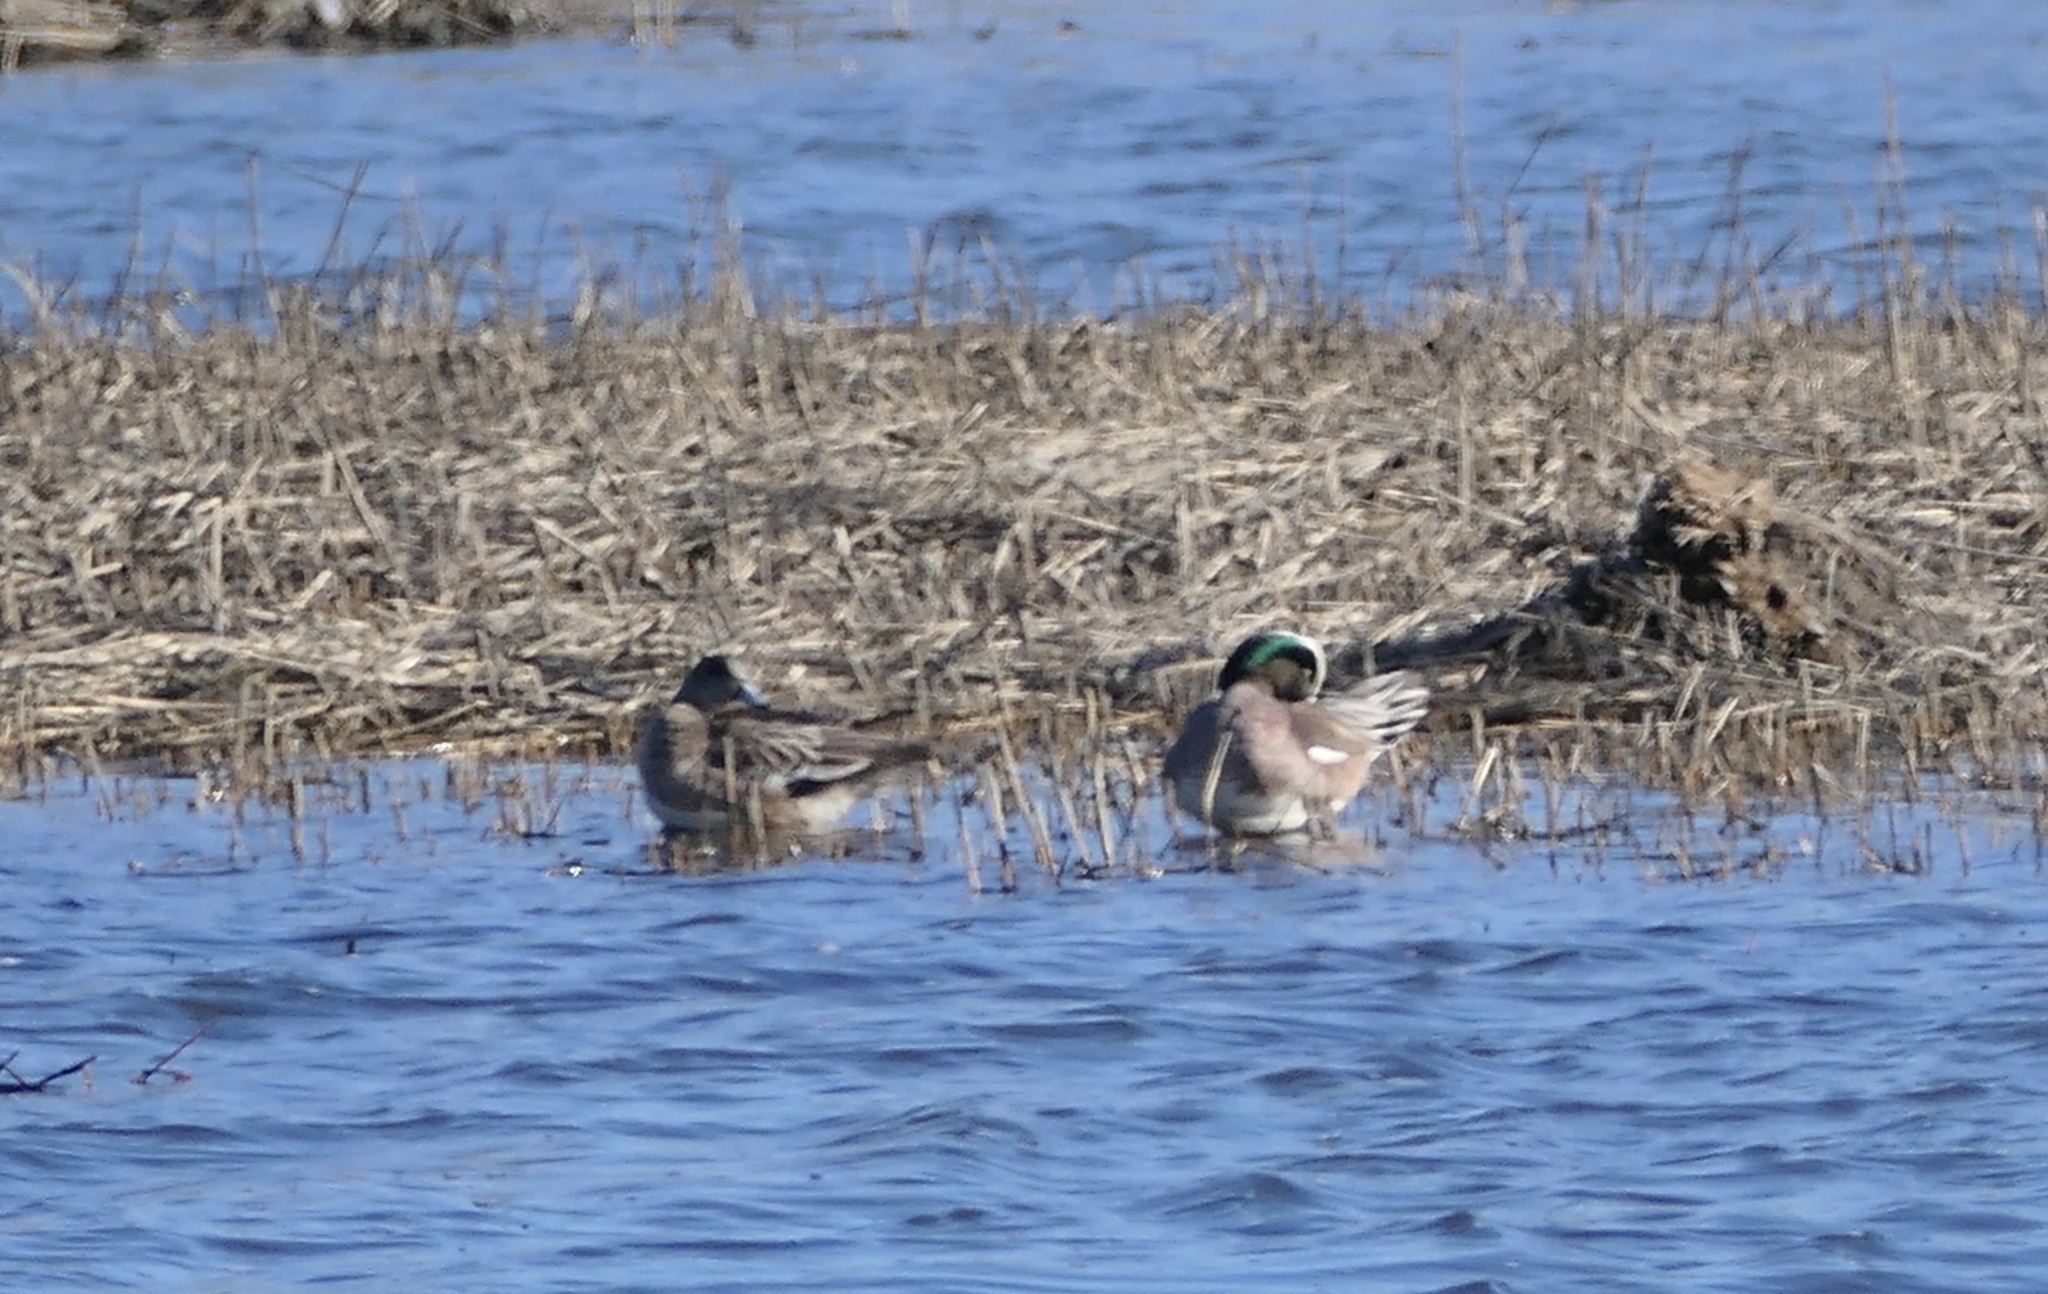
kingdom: Animalia
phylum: Chordata
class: Aves
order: Anseriformes
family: Anatidae
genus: Mareca
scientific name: Mareca americana
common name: American wigeon
